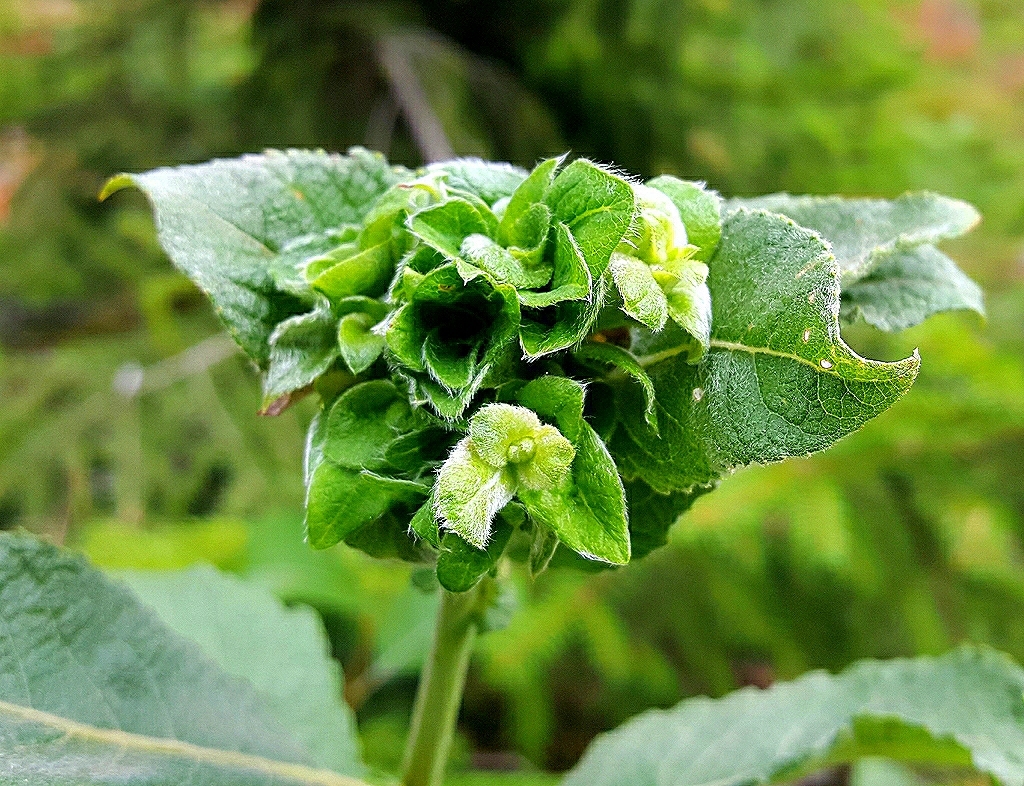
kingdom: Animalia
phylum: Arthropoda
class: Insecta
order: Diptera
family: Cecidomyiidae
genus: Rabdophaga
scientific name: Rabdophaga rosaria
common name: Willow rose gall midge
